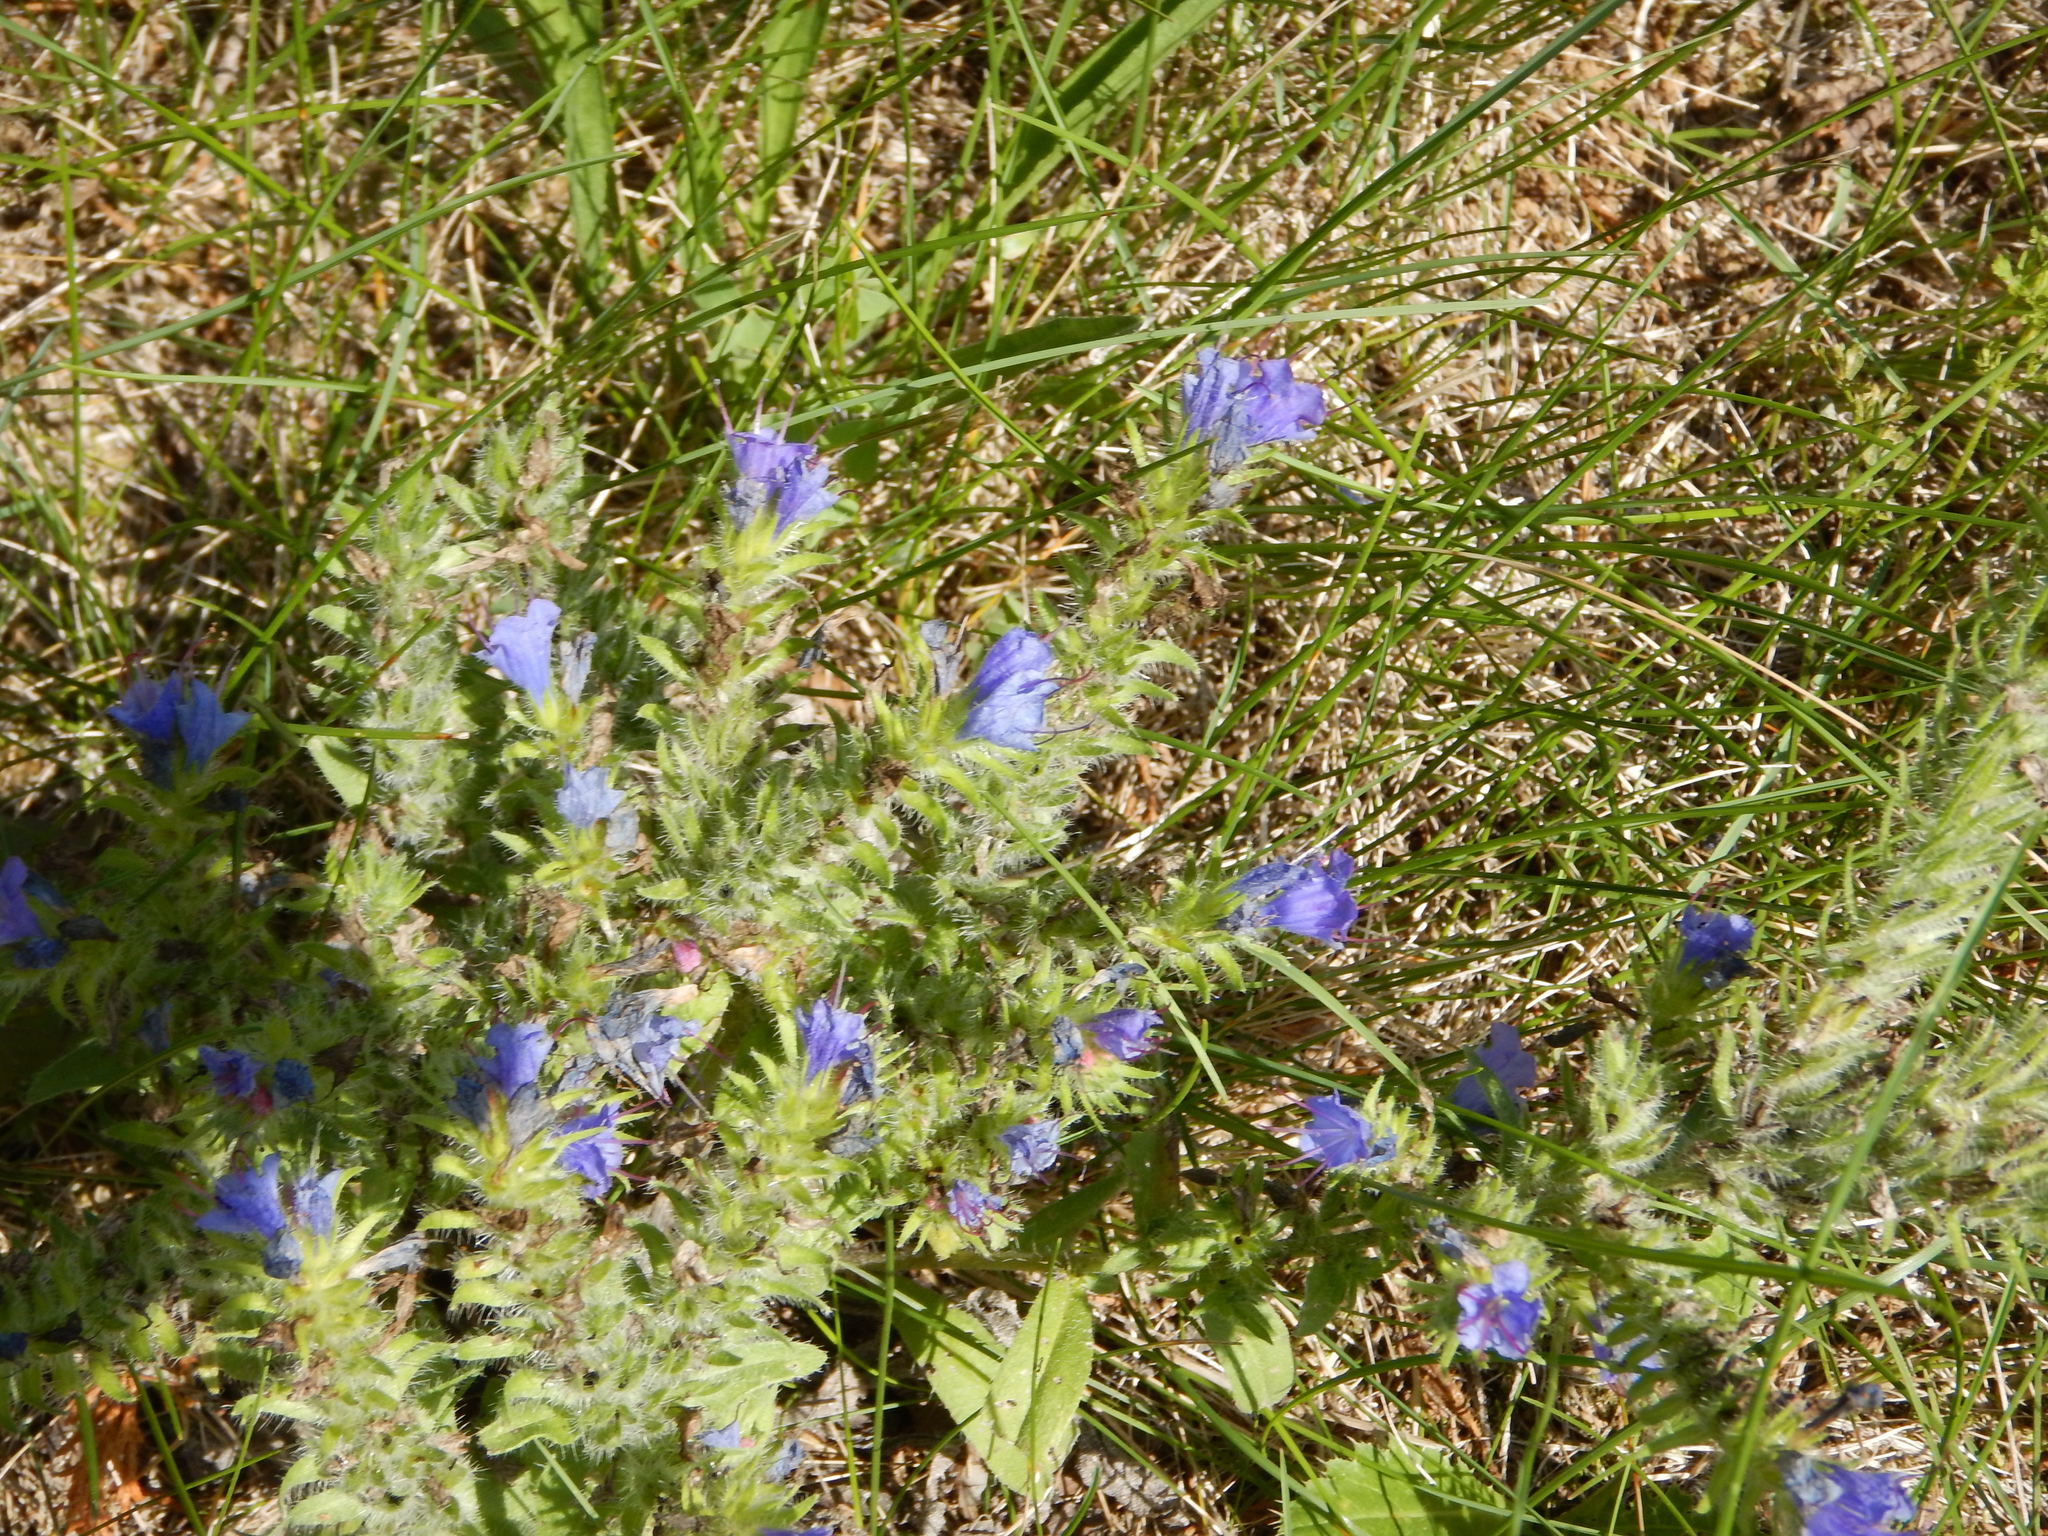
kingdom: Plantae
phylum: Tracheophyta
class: Magnoliopsida
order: Boraginales
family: Boraginaceae
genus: Echium
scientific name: Echium vulgare
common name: Common viper's bugloss
